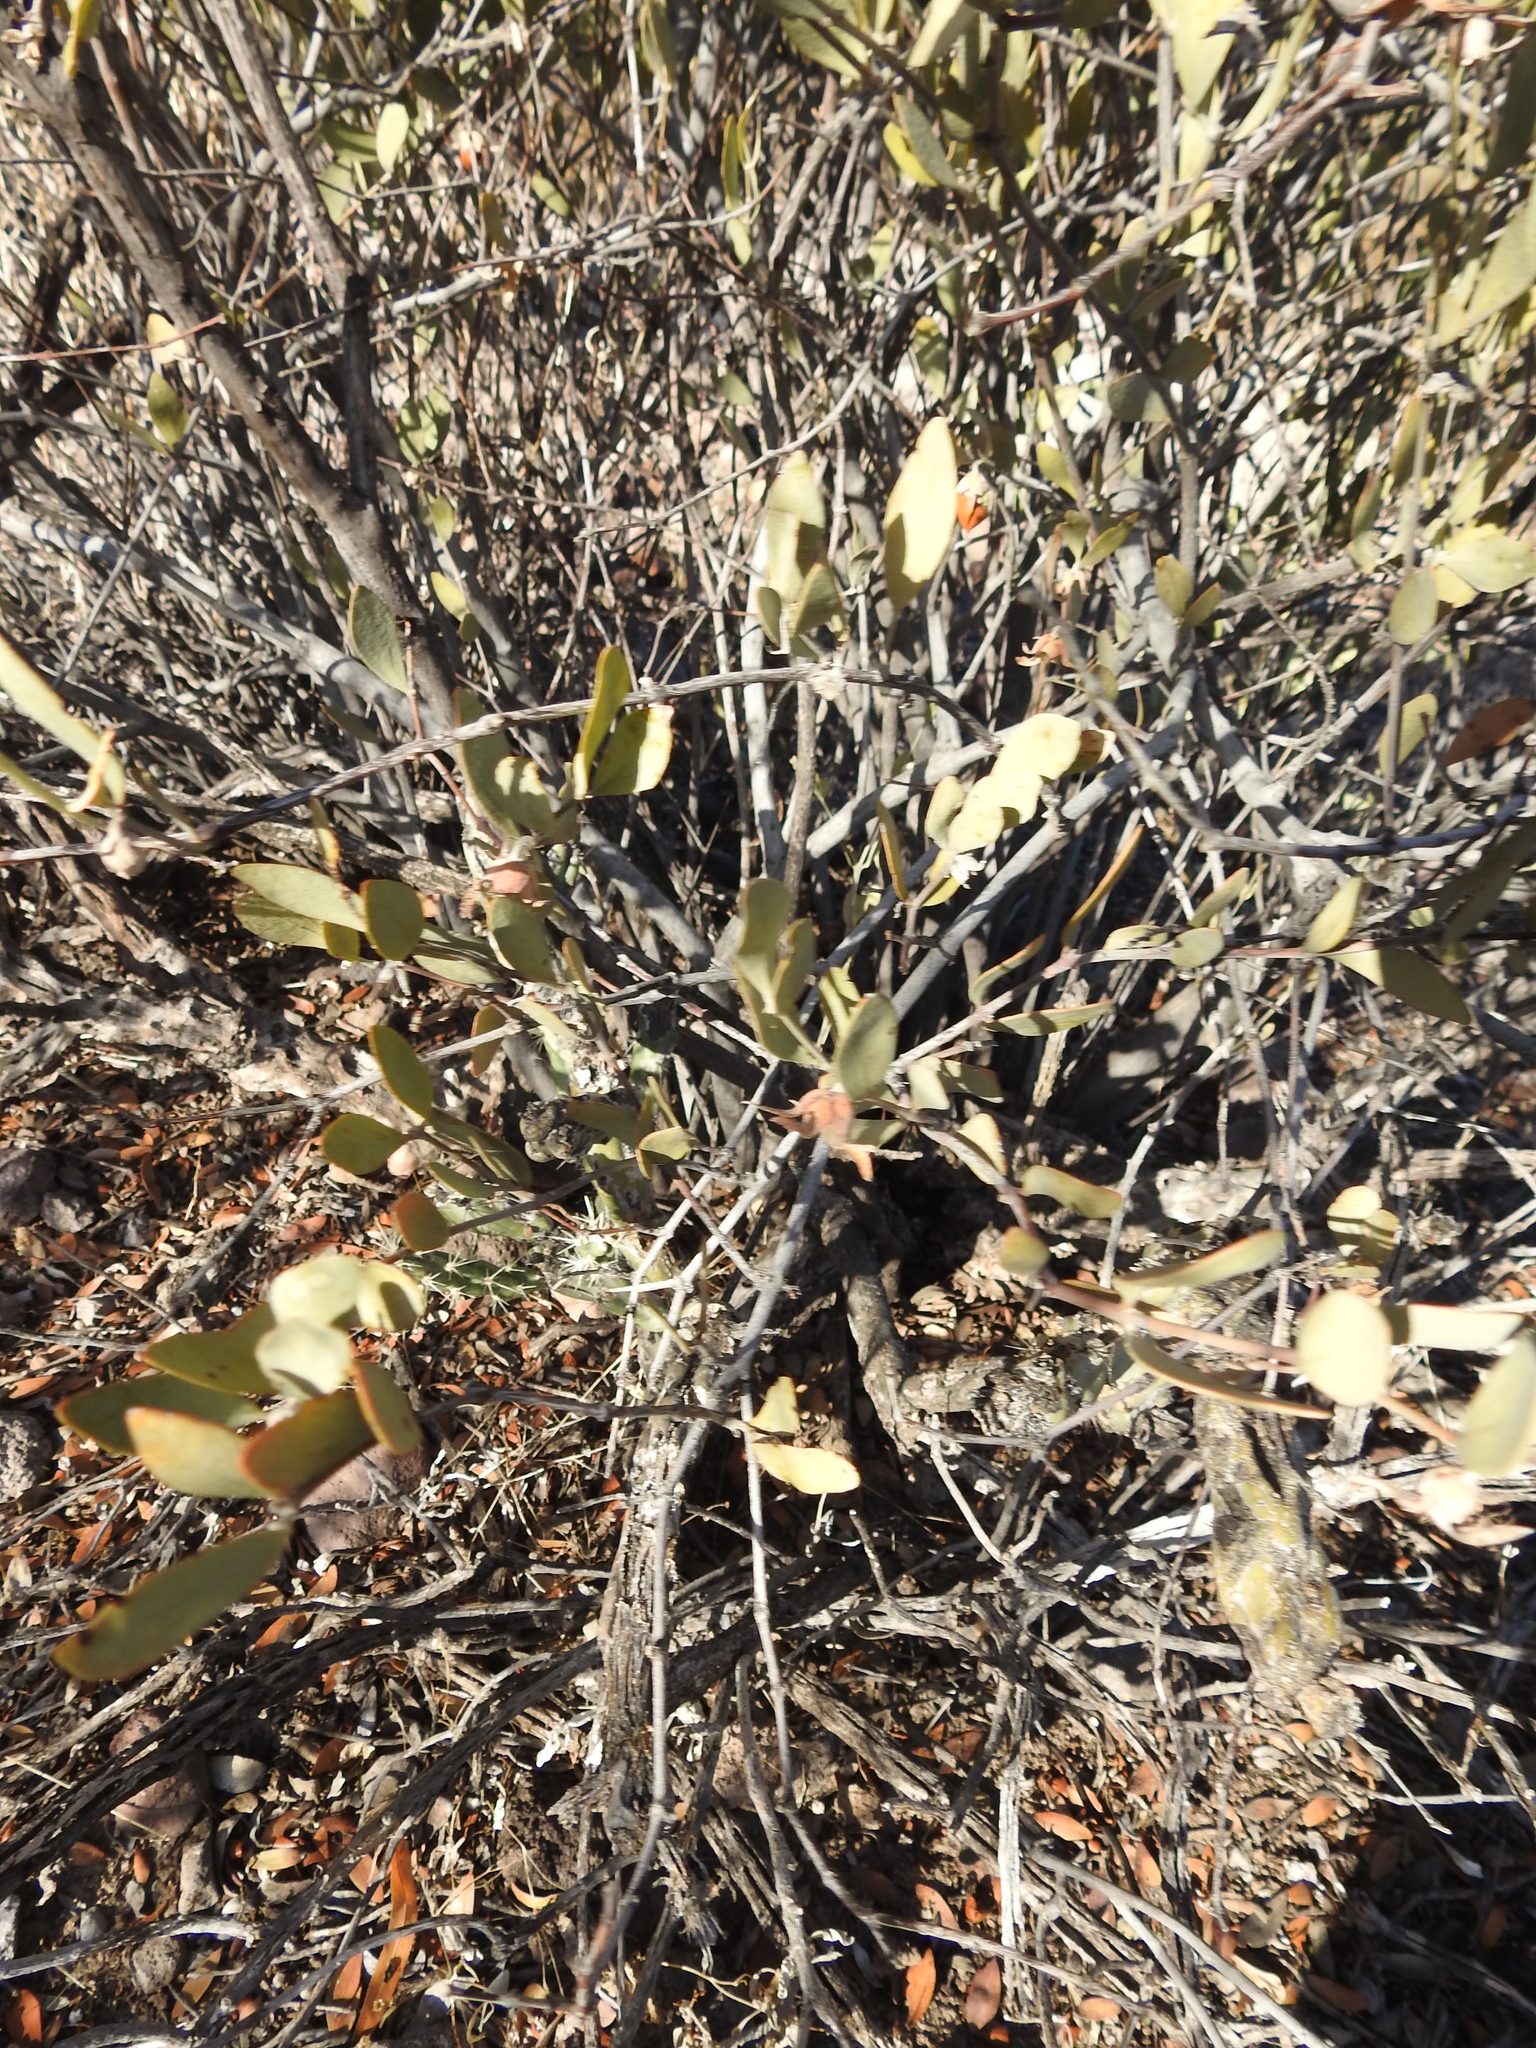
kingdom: Plantae
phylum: Tracheophyta
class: Magnoliopsida
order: Caryophyllales
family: Simmondsiaceae
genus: Simmondsia
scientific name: Simmondsia chinensis
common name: Jojoba
